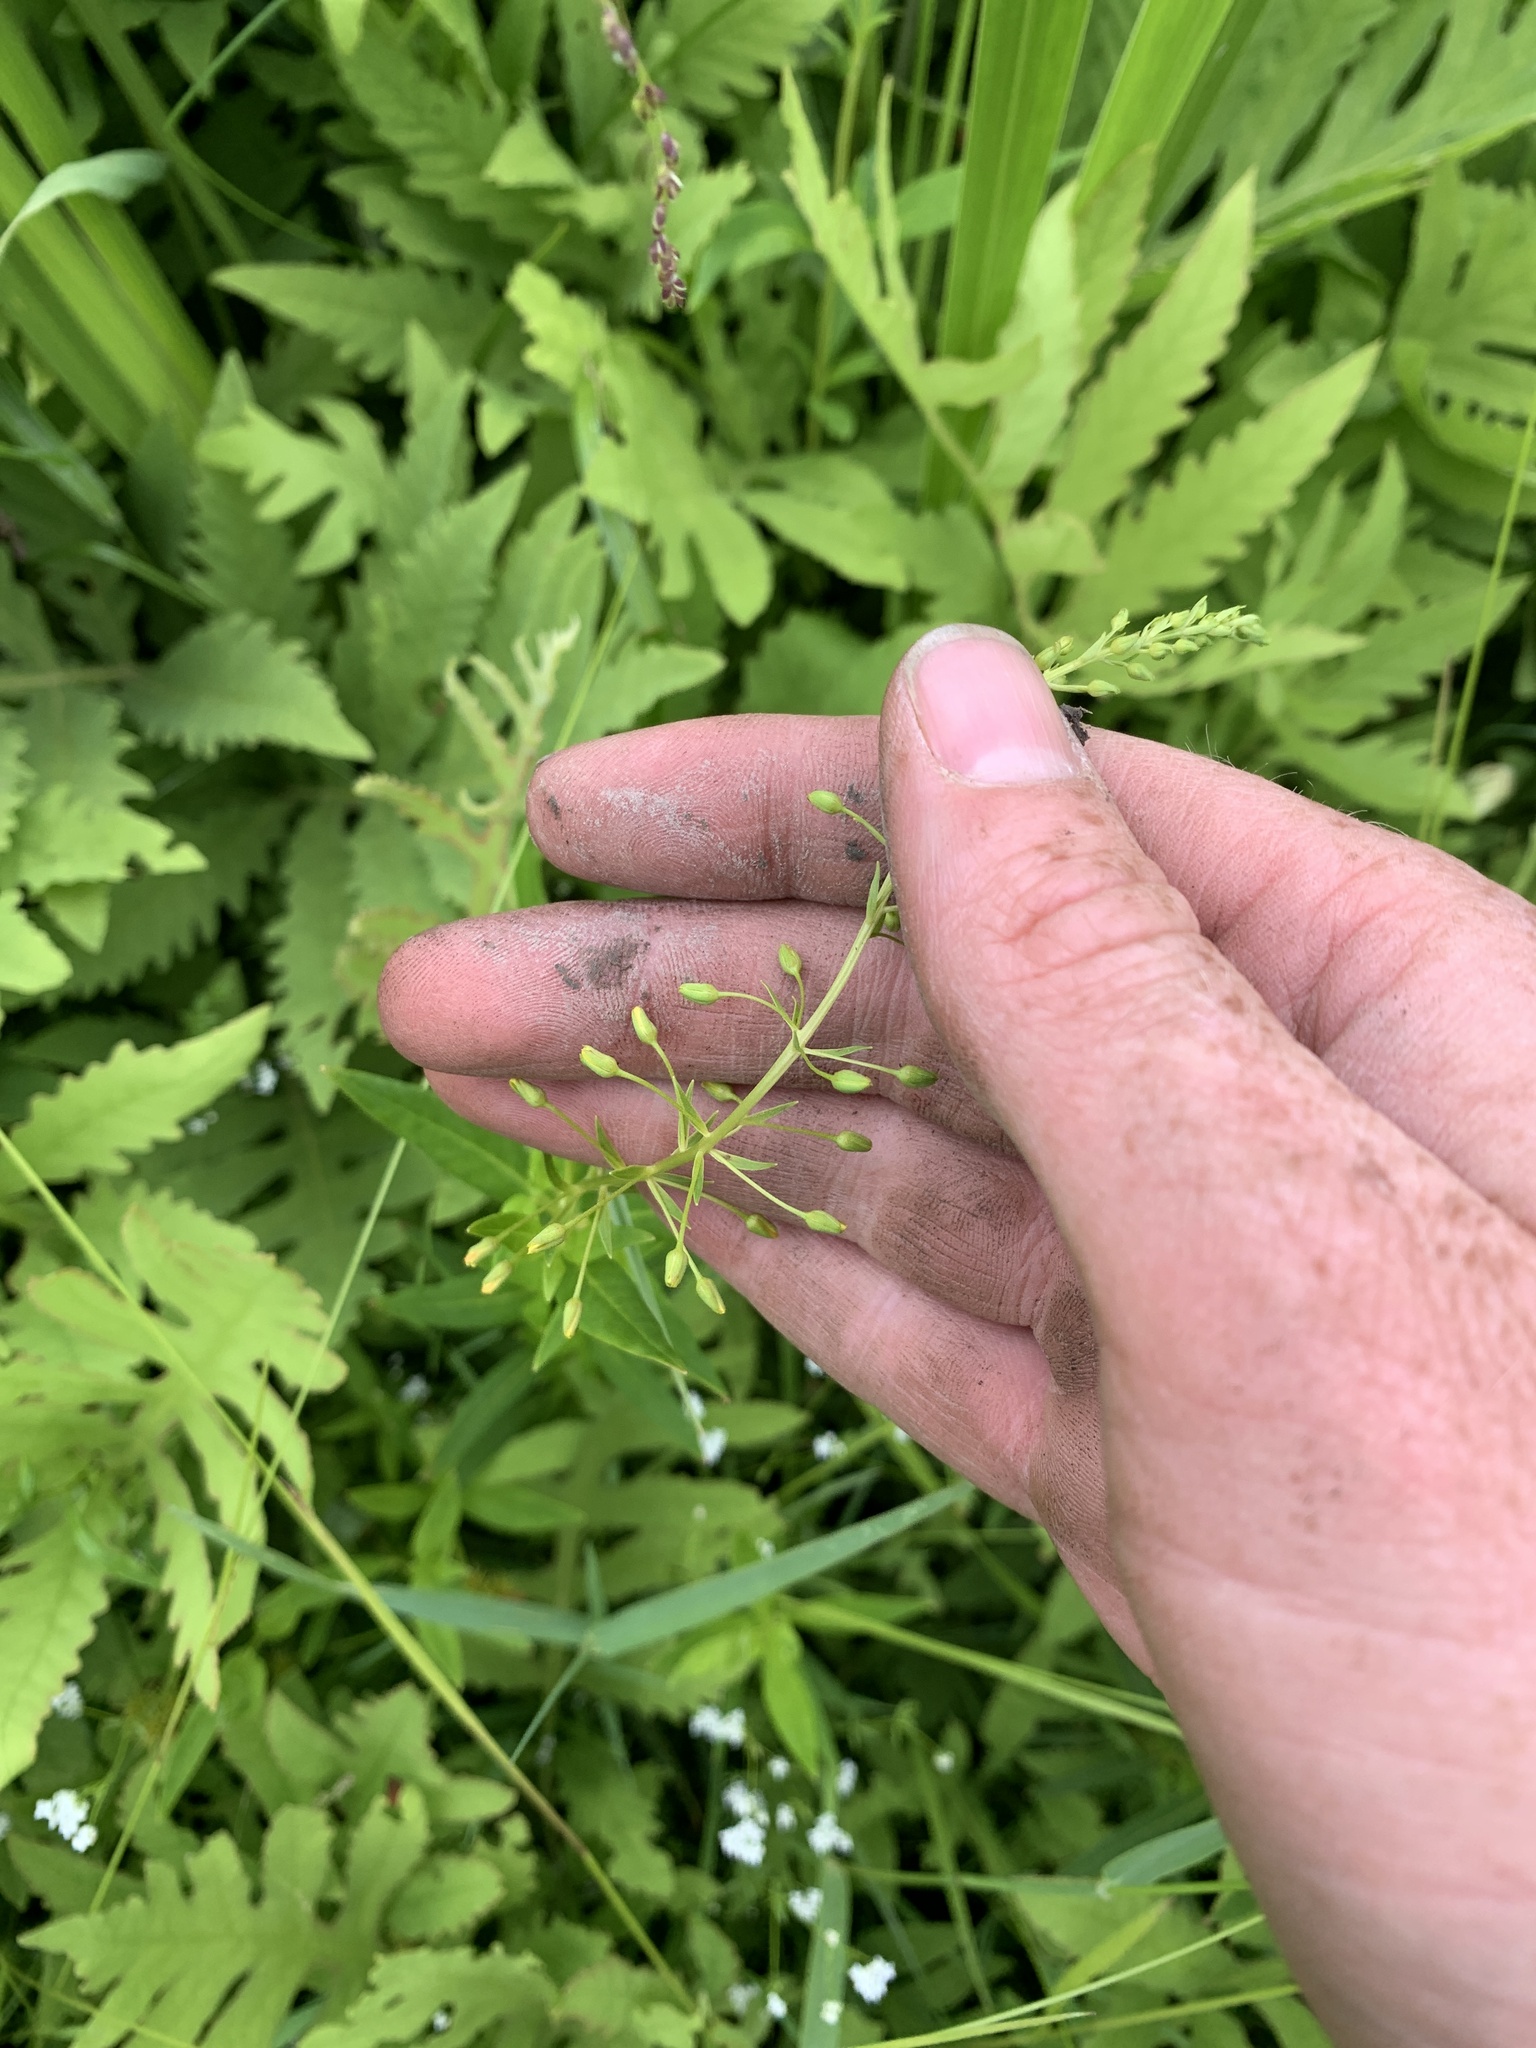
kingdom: Plantae
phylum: Tracheophyta
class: Magnoliopsida
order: Ericales
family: Primulaceae
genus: Lysimachia
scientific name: Lysimachia terrestris
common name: Lake loosestrife
